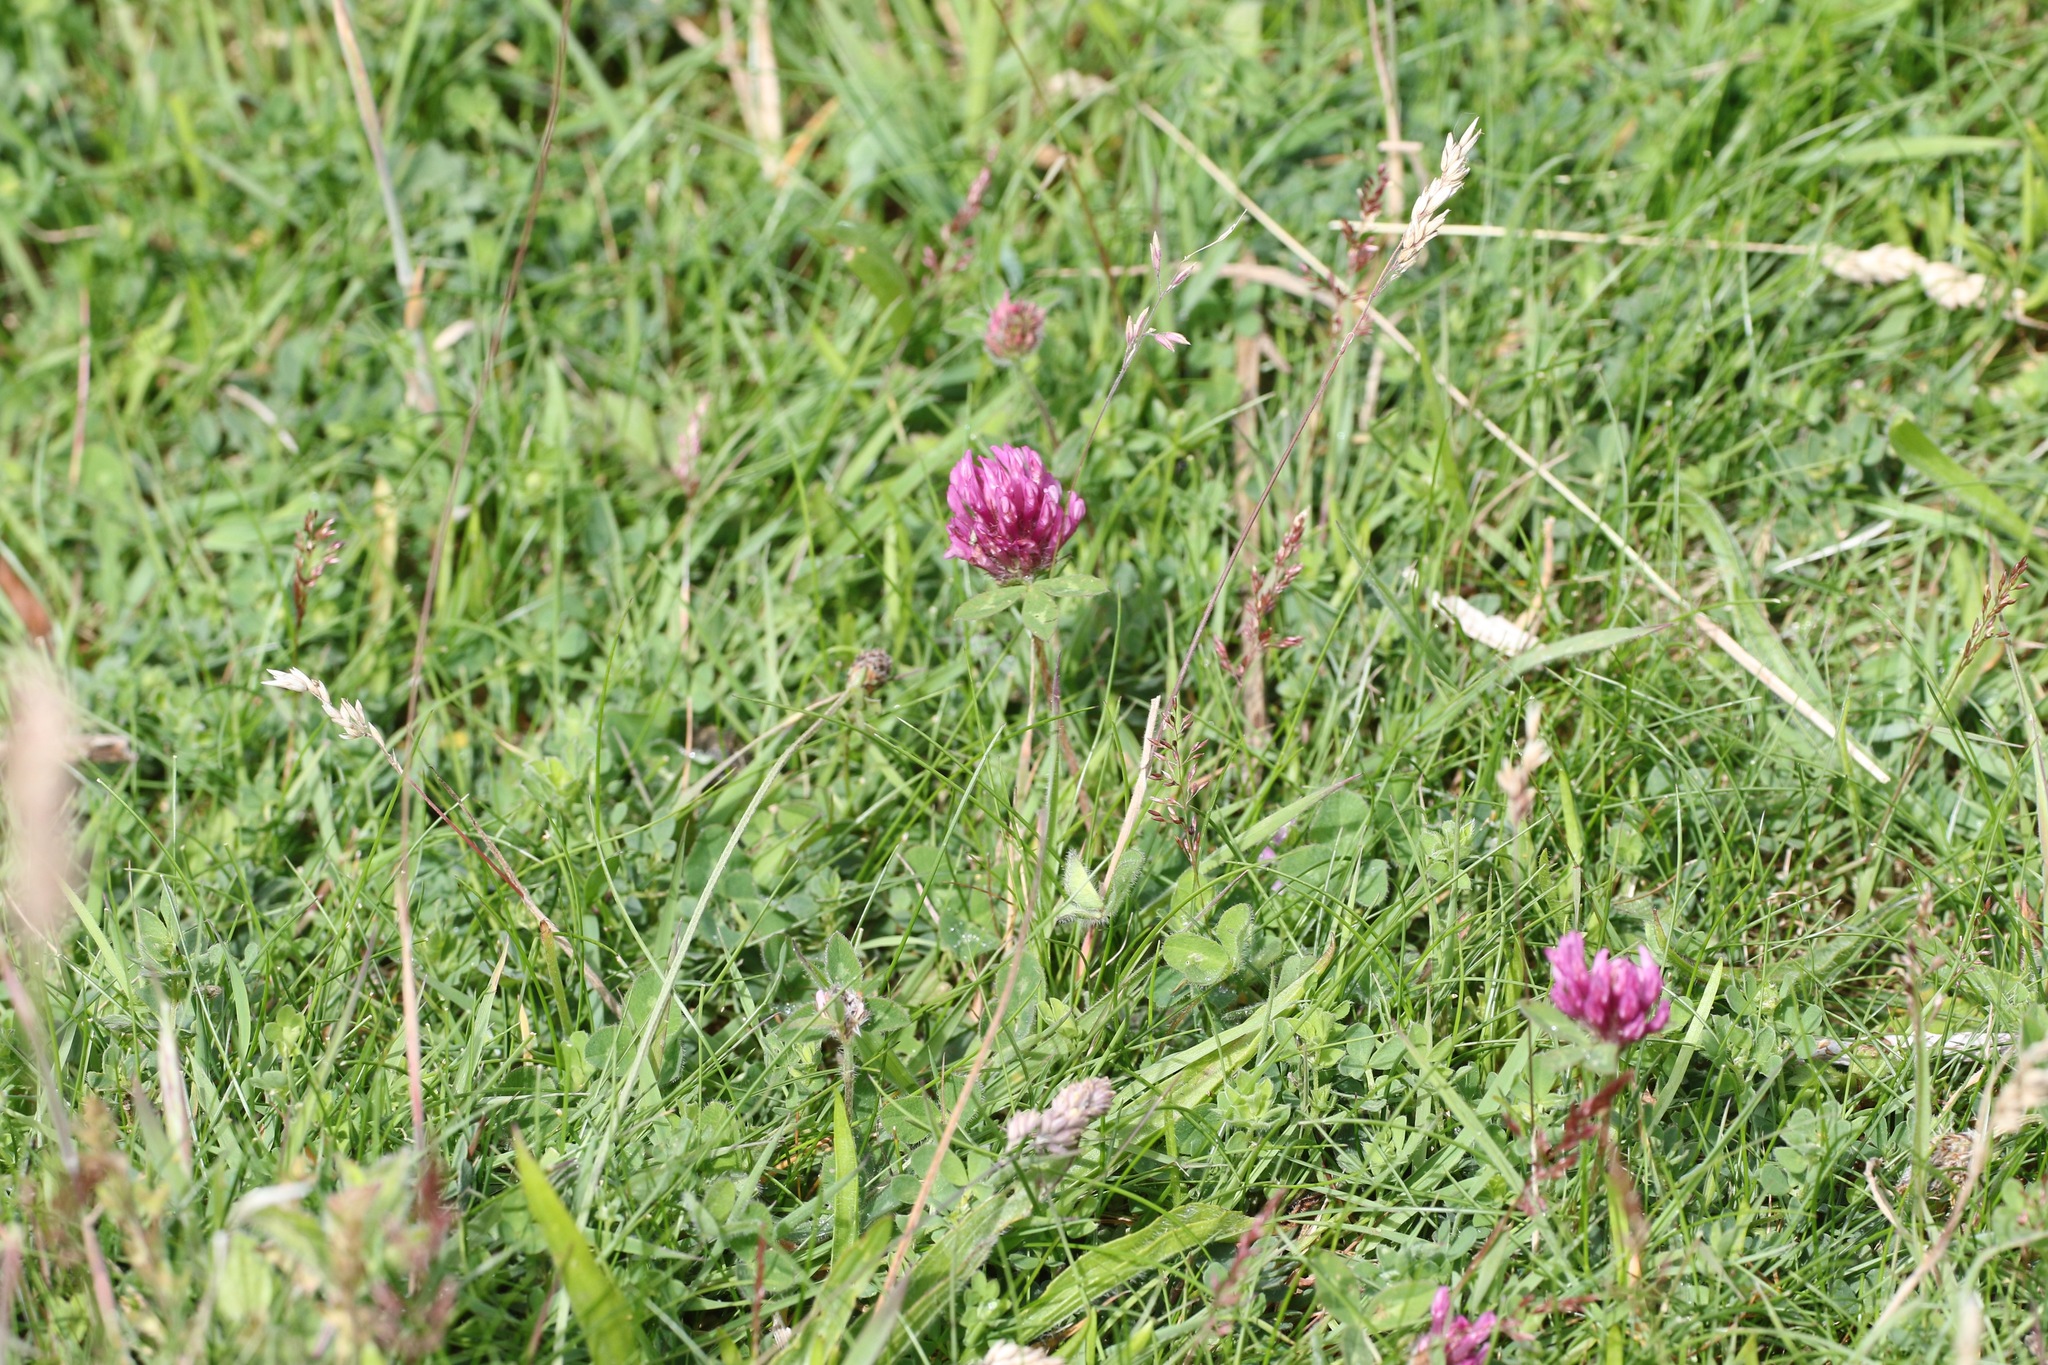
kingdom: Plantae
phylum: Tracheophyta
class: Magnoliopsida
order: Fabales
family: Fabaceae
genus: Trifolium
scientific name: Trifolium pratense
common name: Red clover
